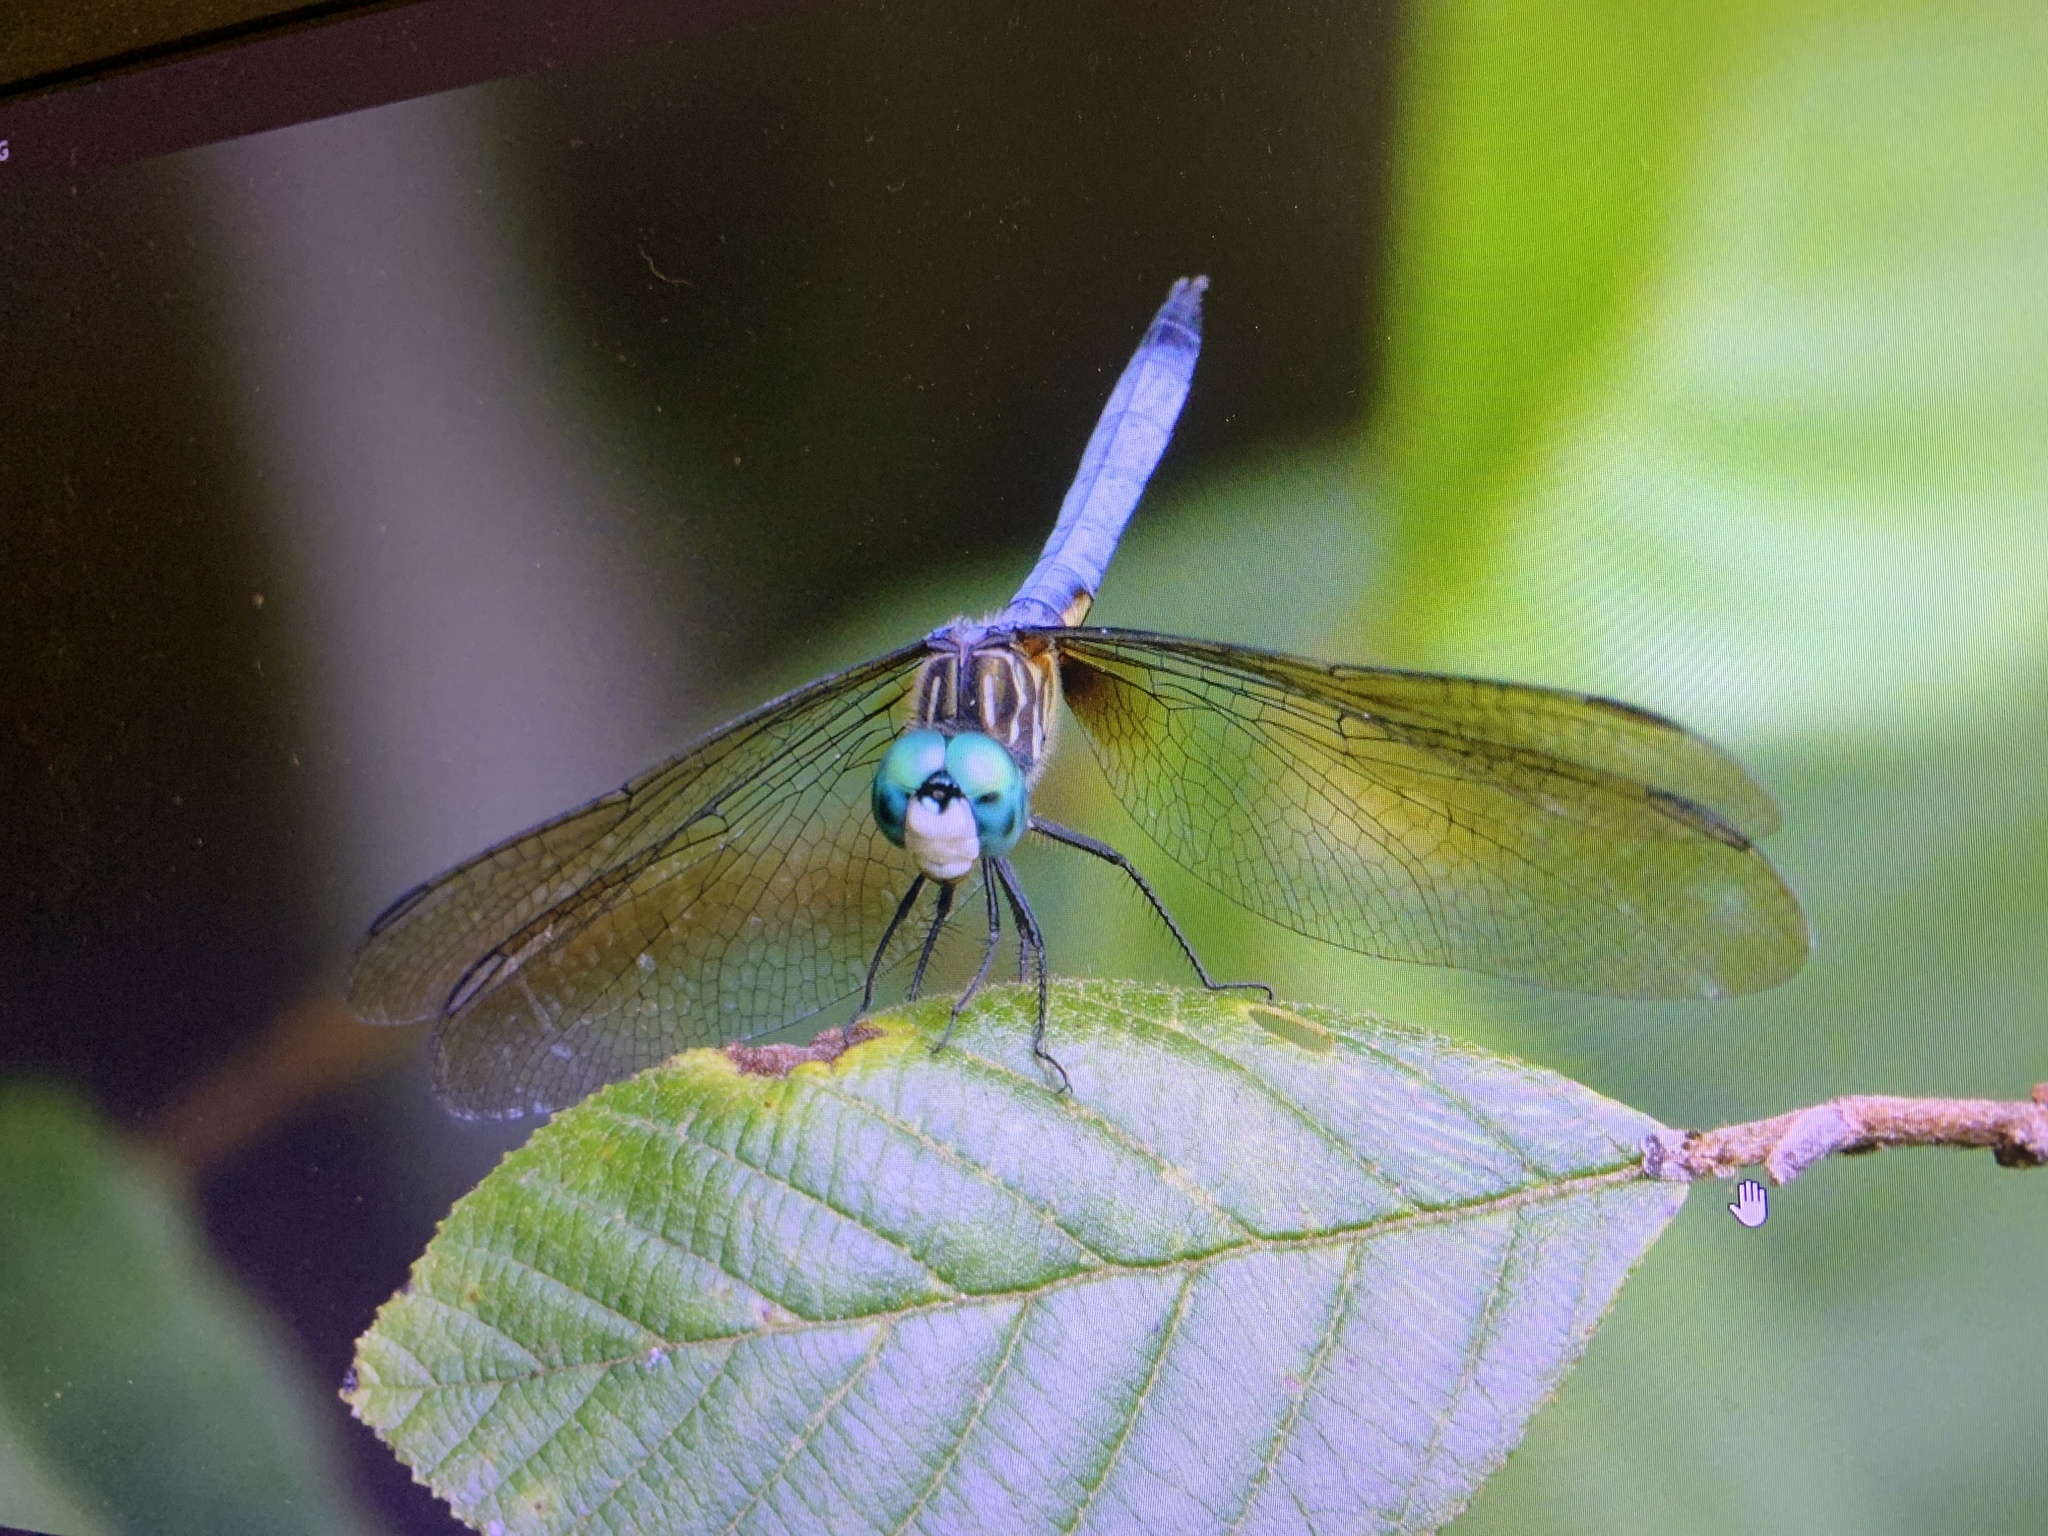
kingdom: Animalia
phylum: Arthropoda
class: Insecta
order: Odonata
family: Libellulidae
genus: Pachydiplax
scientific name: Pachydiplax longipennis
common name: Blue dasher
